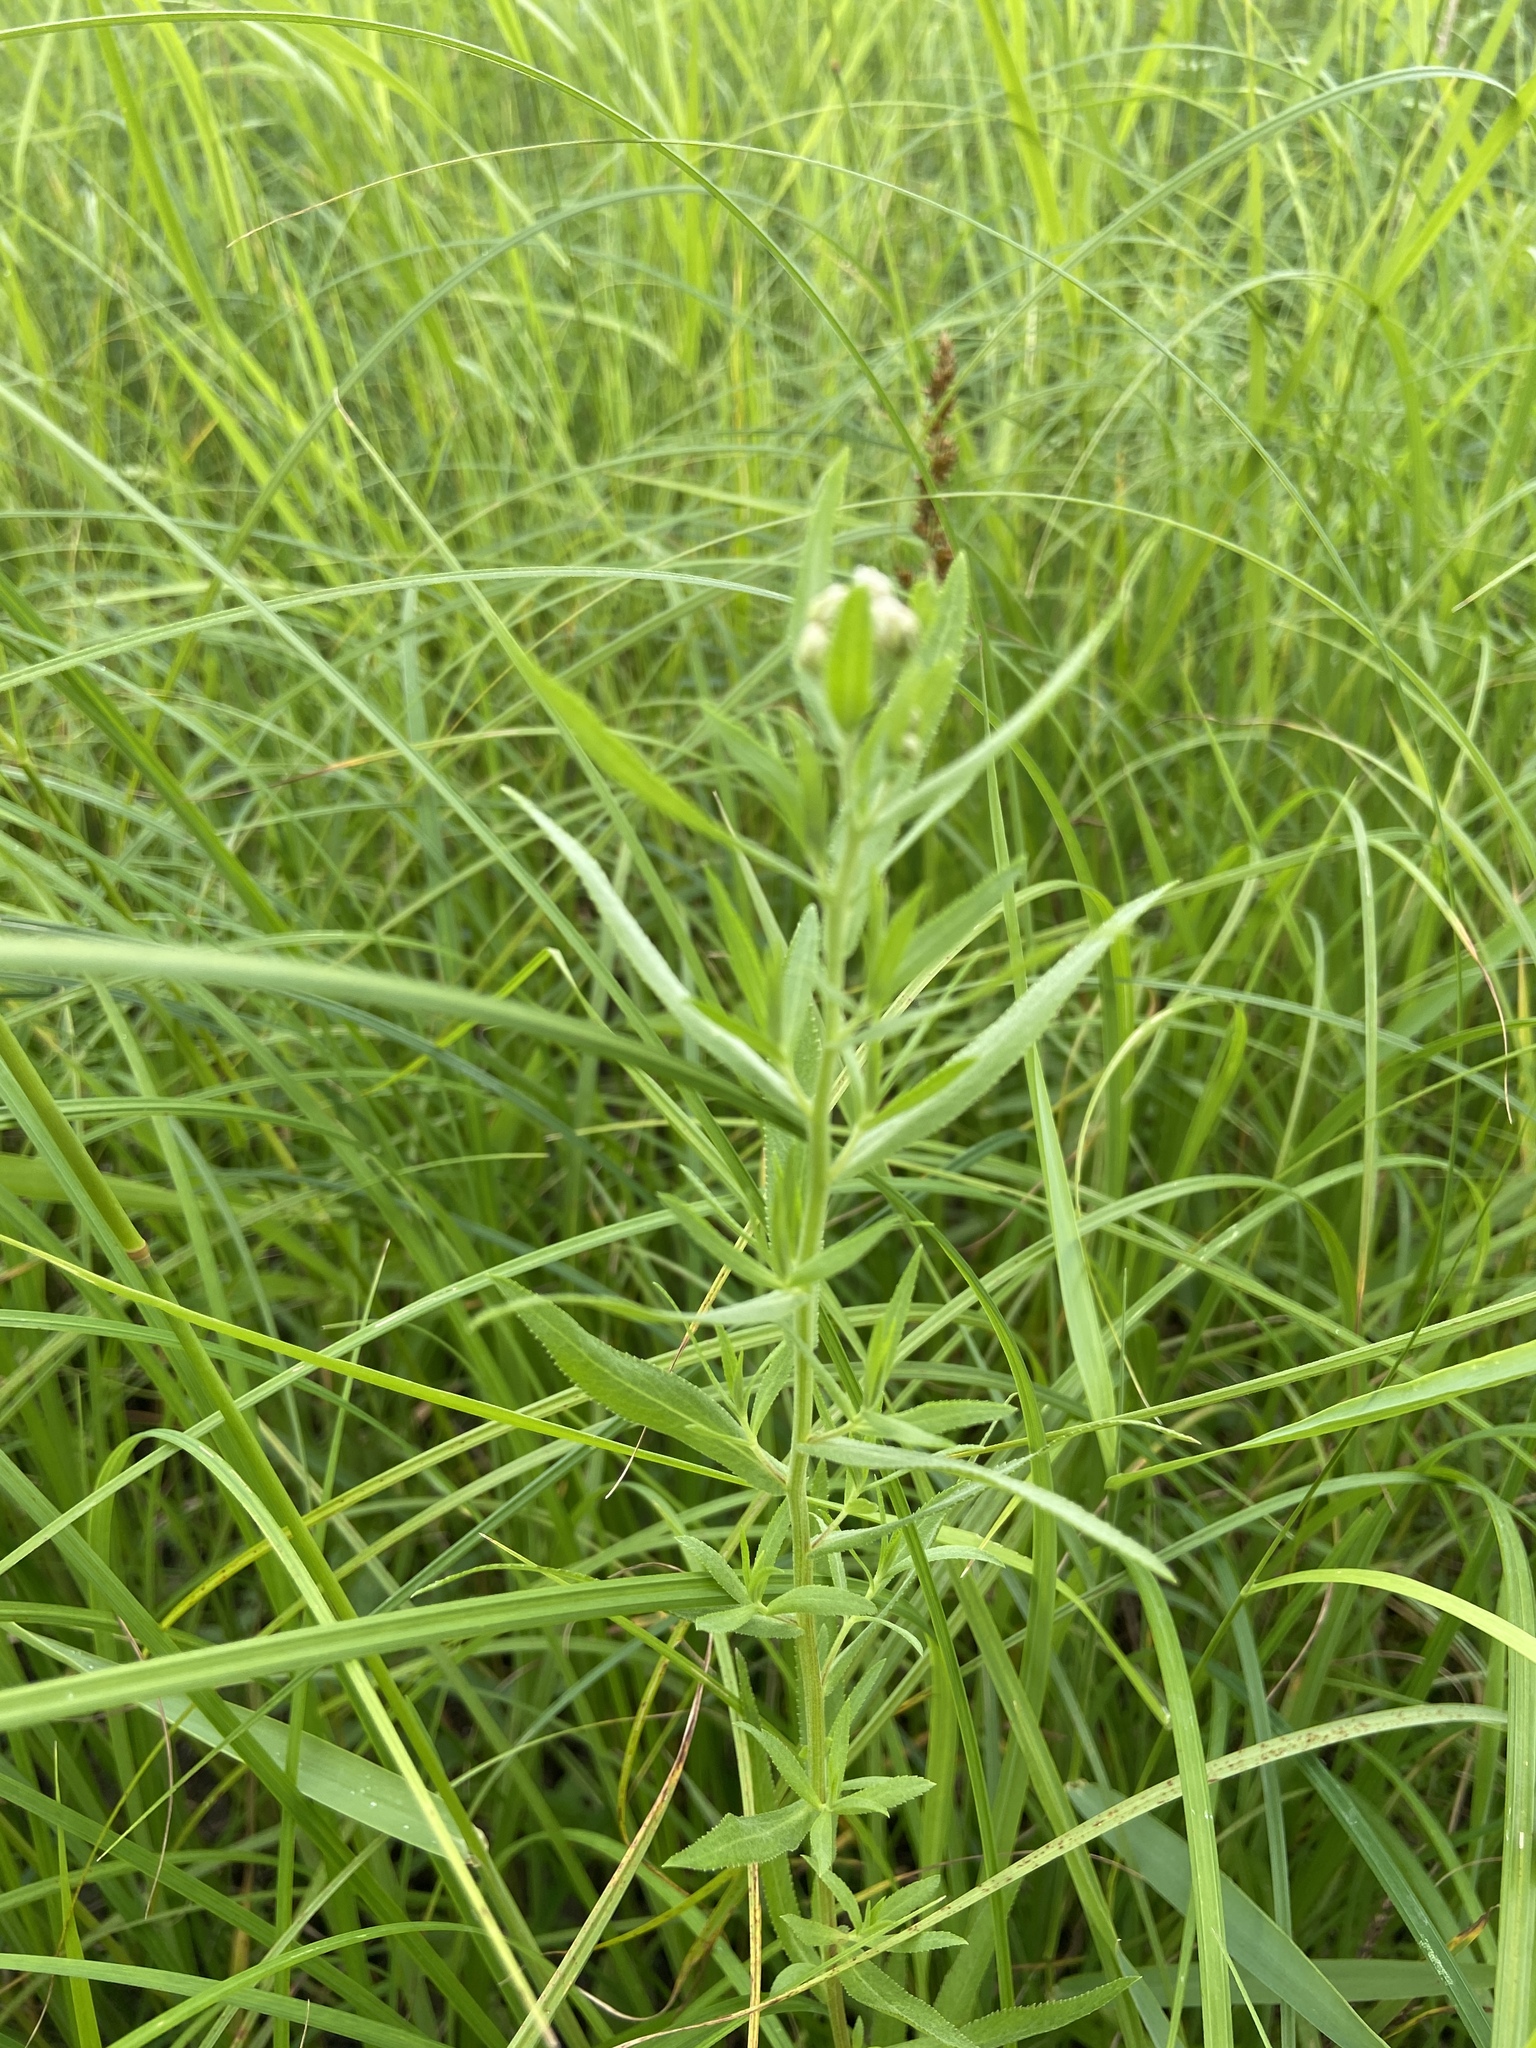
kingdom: Plantae
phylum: Tracheophyta
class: Magnoliopsida
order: Asterales
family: Asteraceae
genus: Achillea
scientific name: Achillea salicifolia
